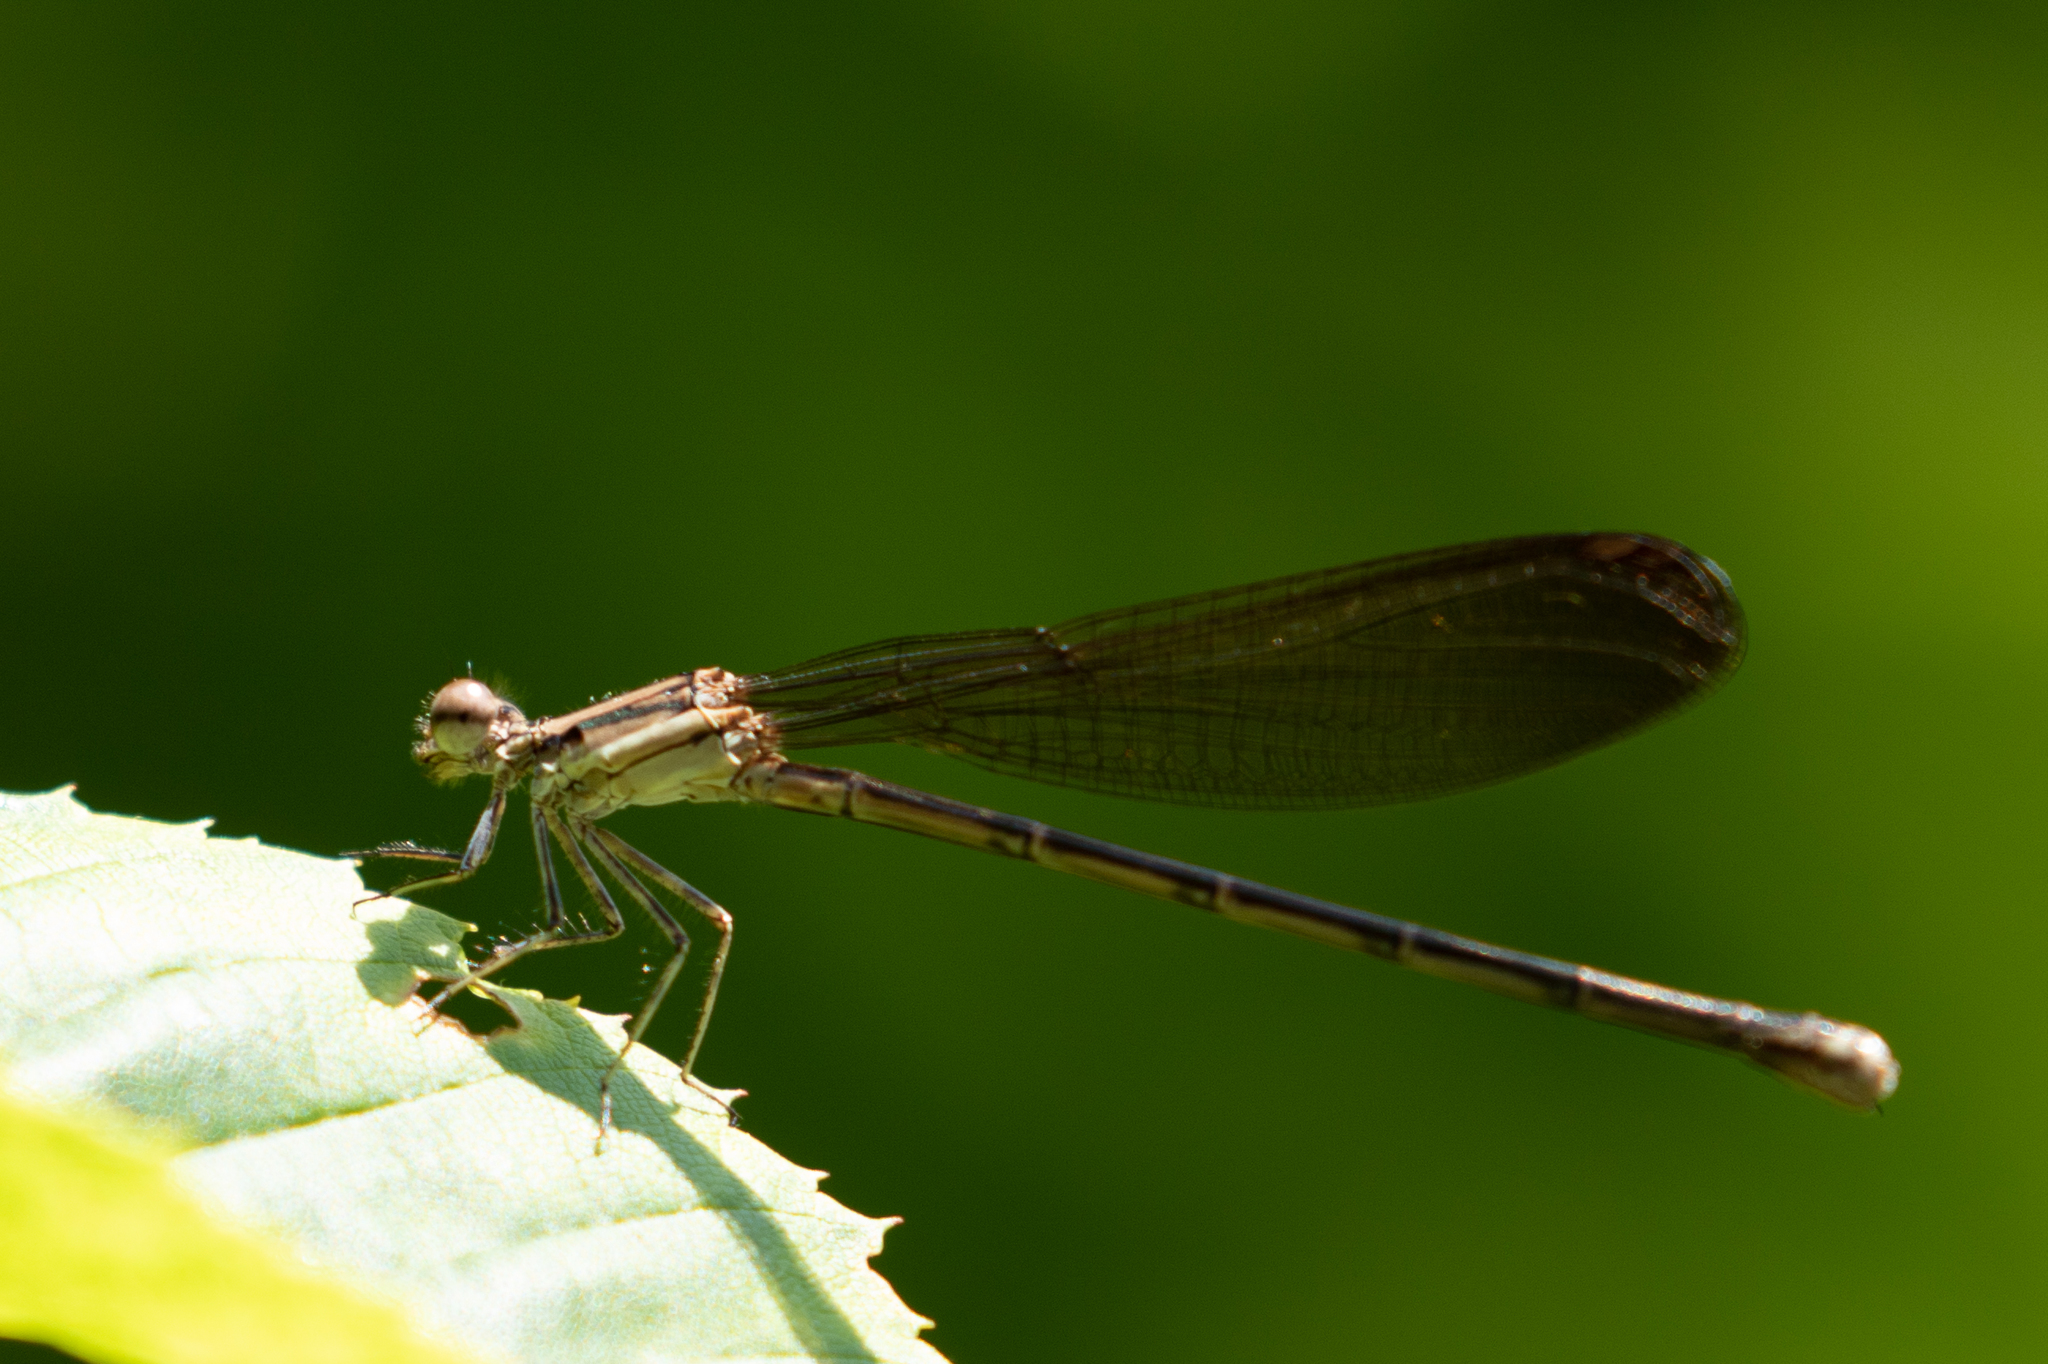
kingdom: Animalia
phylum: Arthropoda
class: Insecta
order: Odonata
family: Coenagrionidae
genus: Argia
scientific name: Argia fumipennis
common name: Variable dancer
